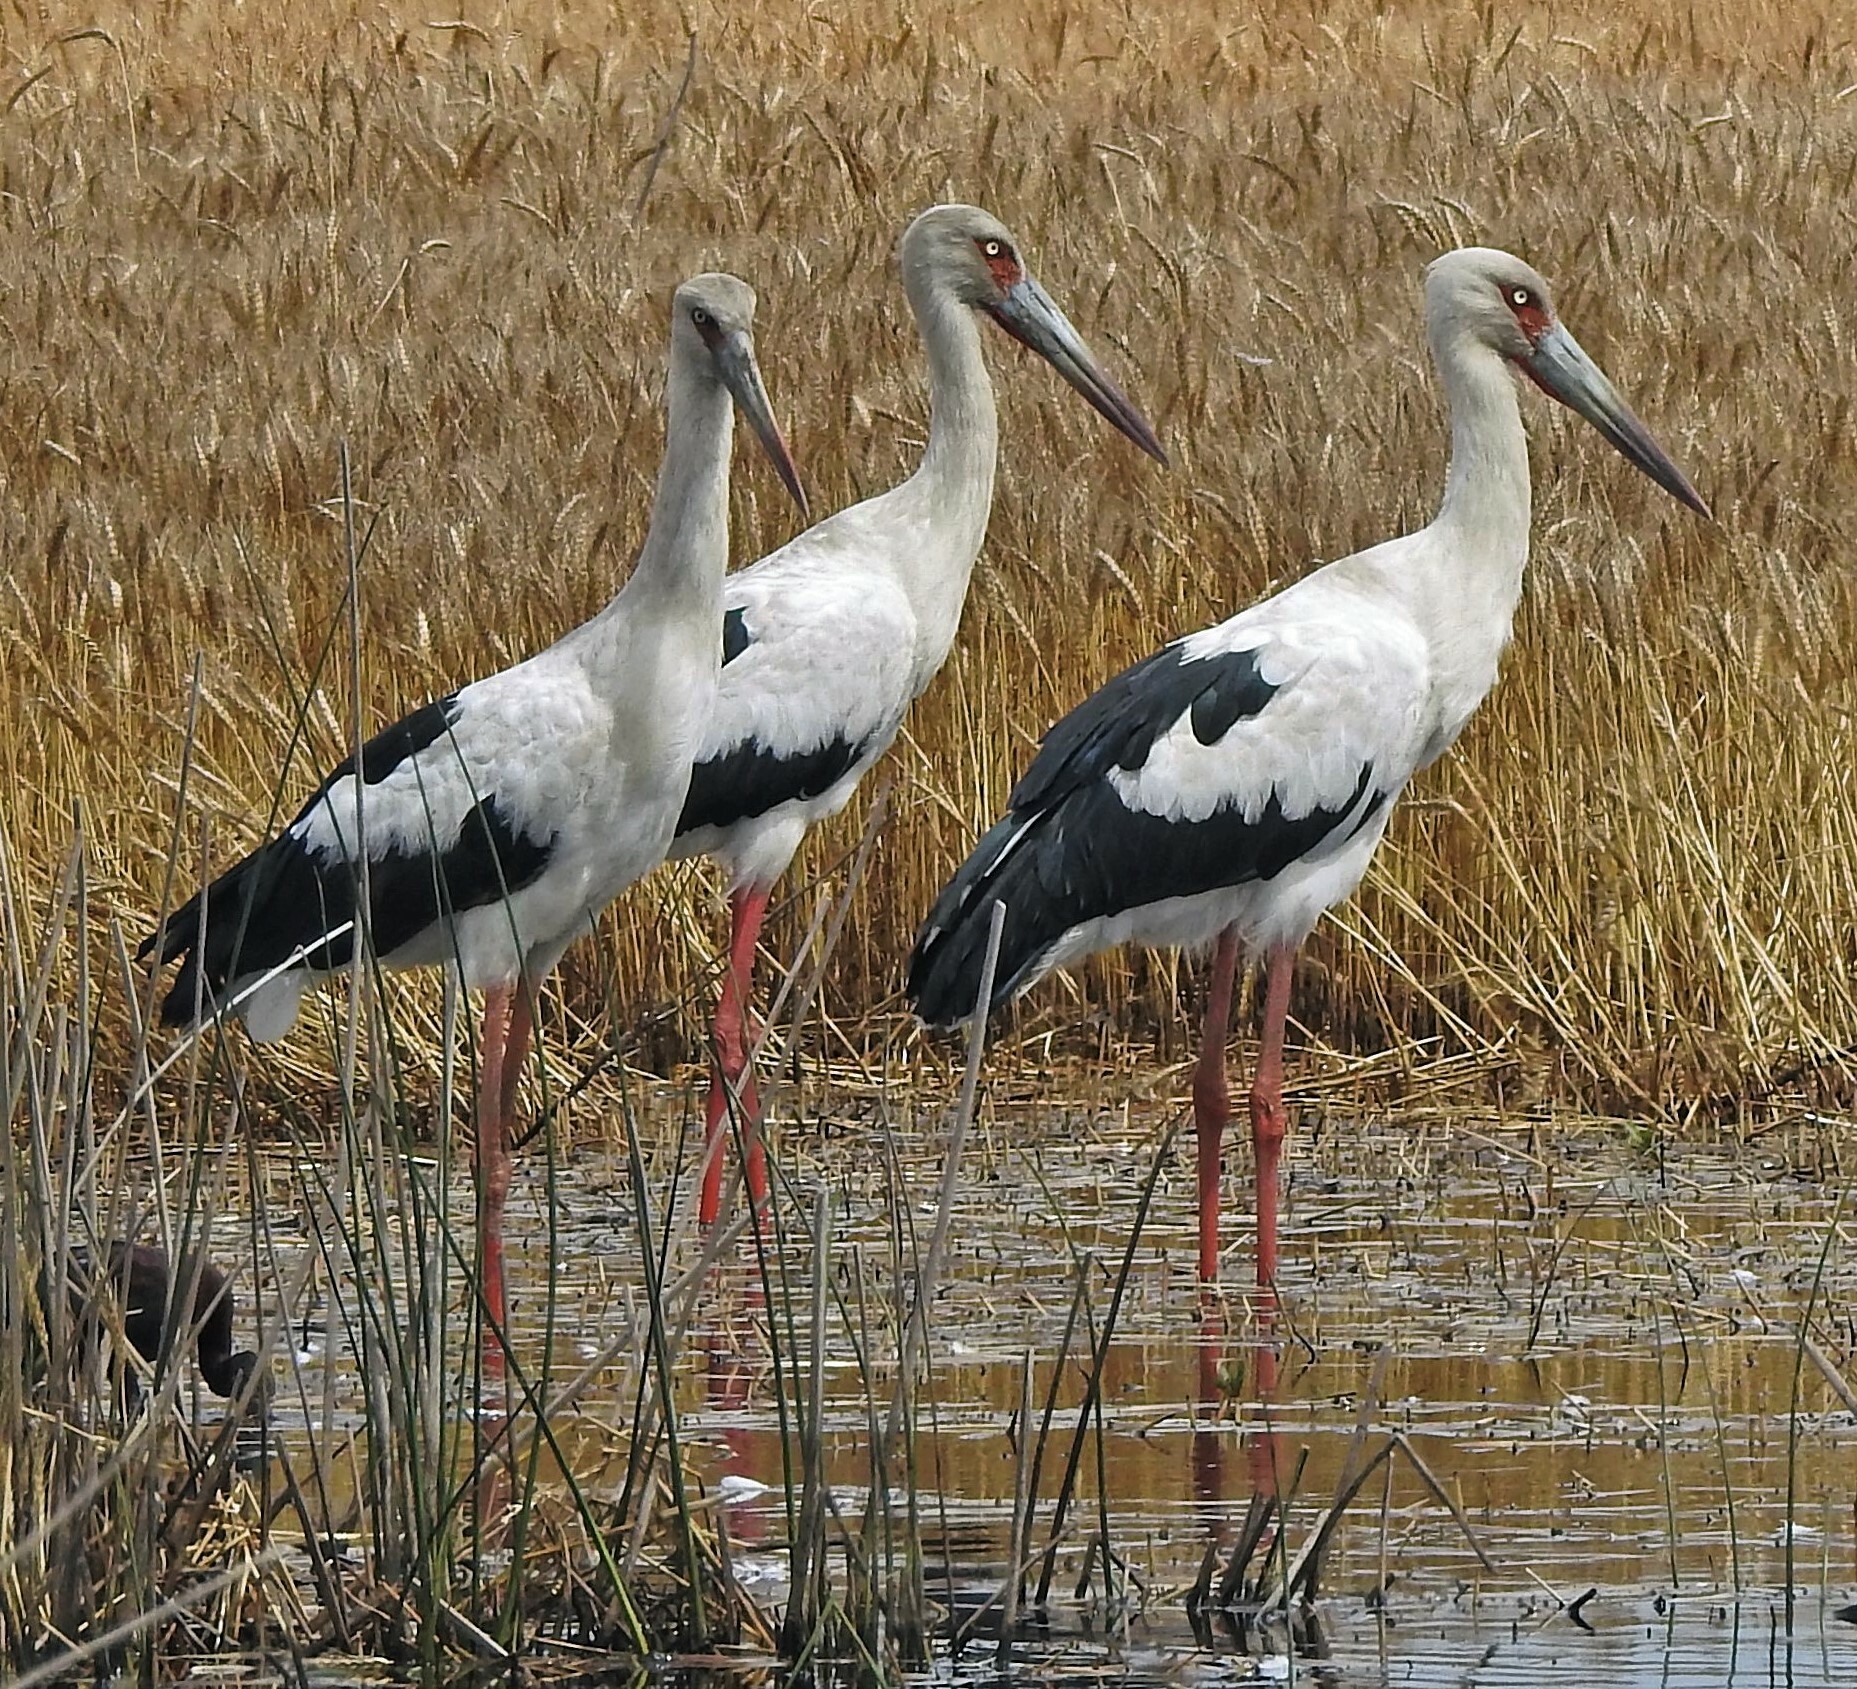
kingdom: Animalia
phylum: Chordata
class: Aves
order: Ciconiiformes
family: Ciconiidae
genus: Ciconia
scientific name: Ciconia maguari
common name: Maguari stork
